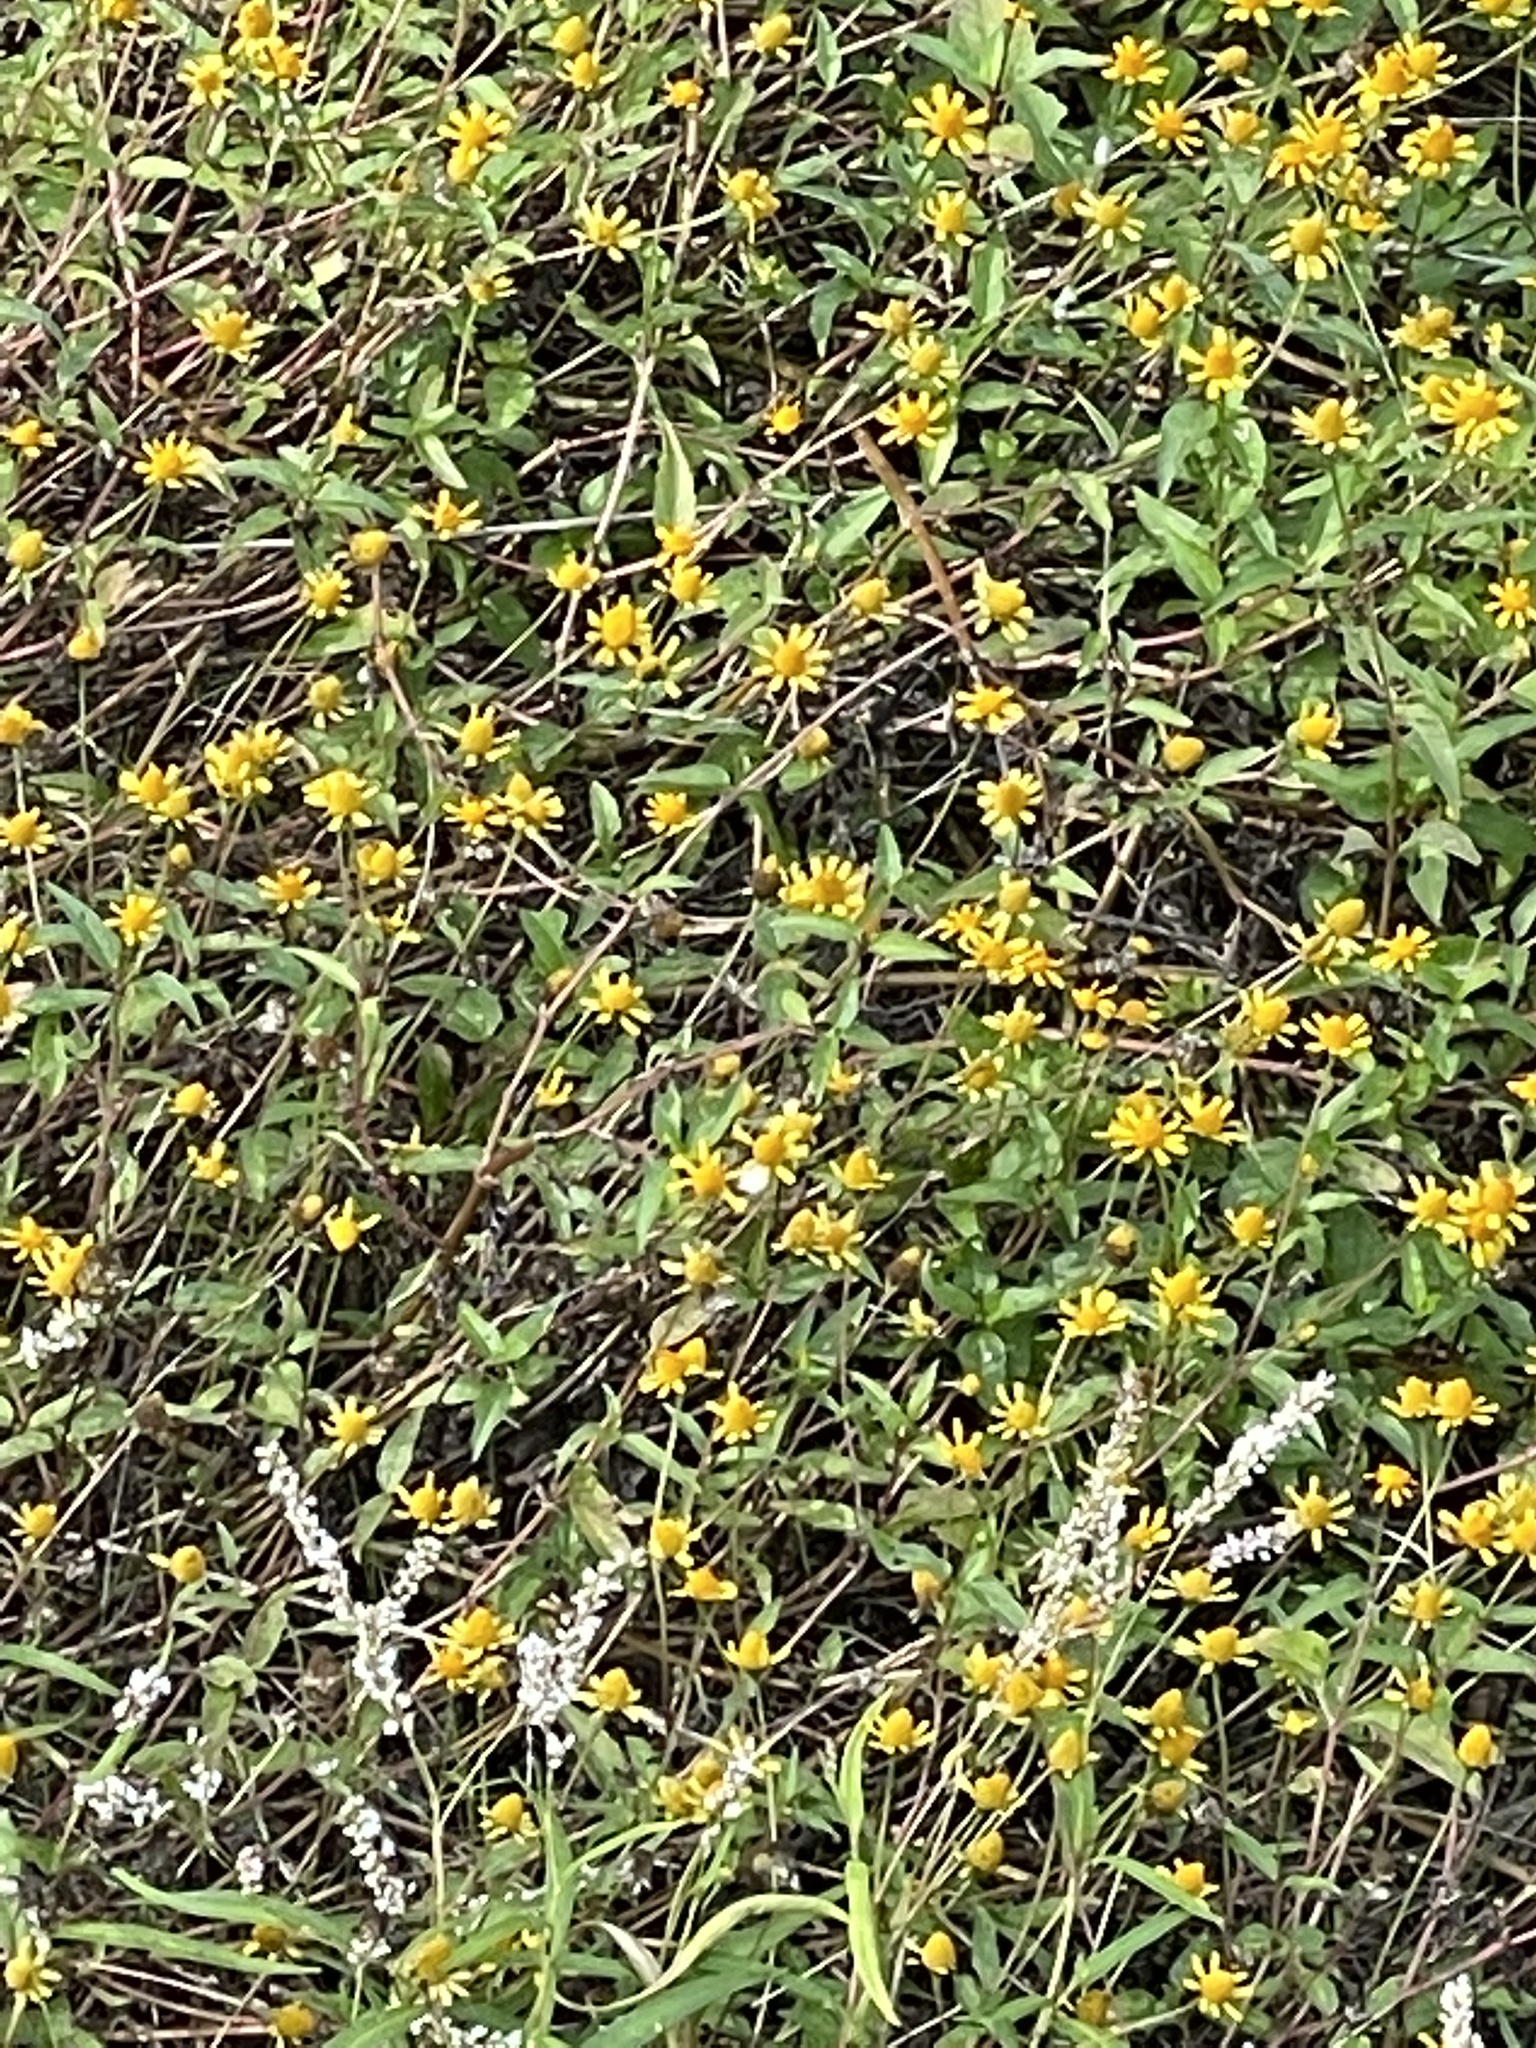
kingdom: Plantae
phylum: Tracheophyta
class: Magnoliopsida
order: Asterales
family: Asteraceae
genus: Acmella
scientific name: Acmella repens
